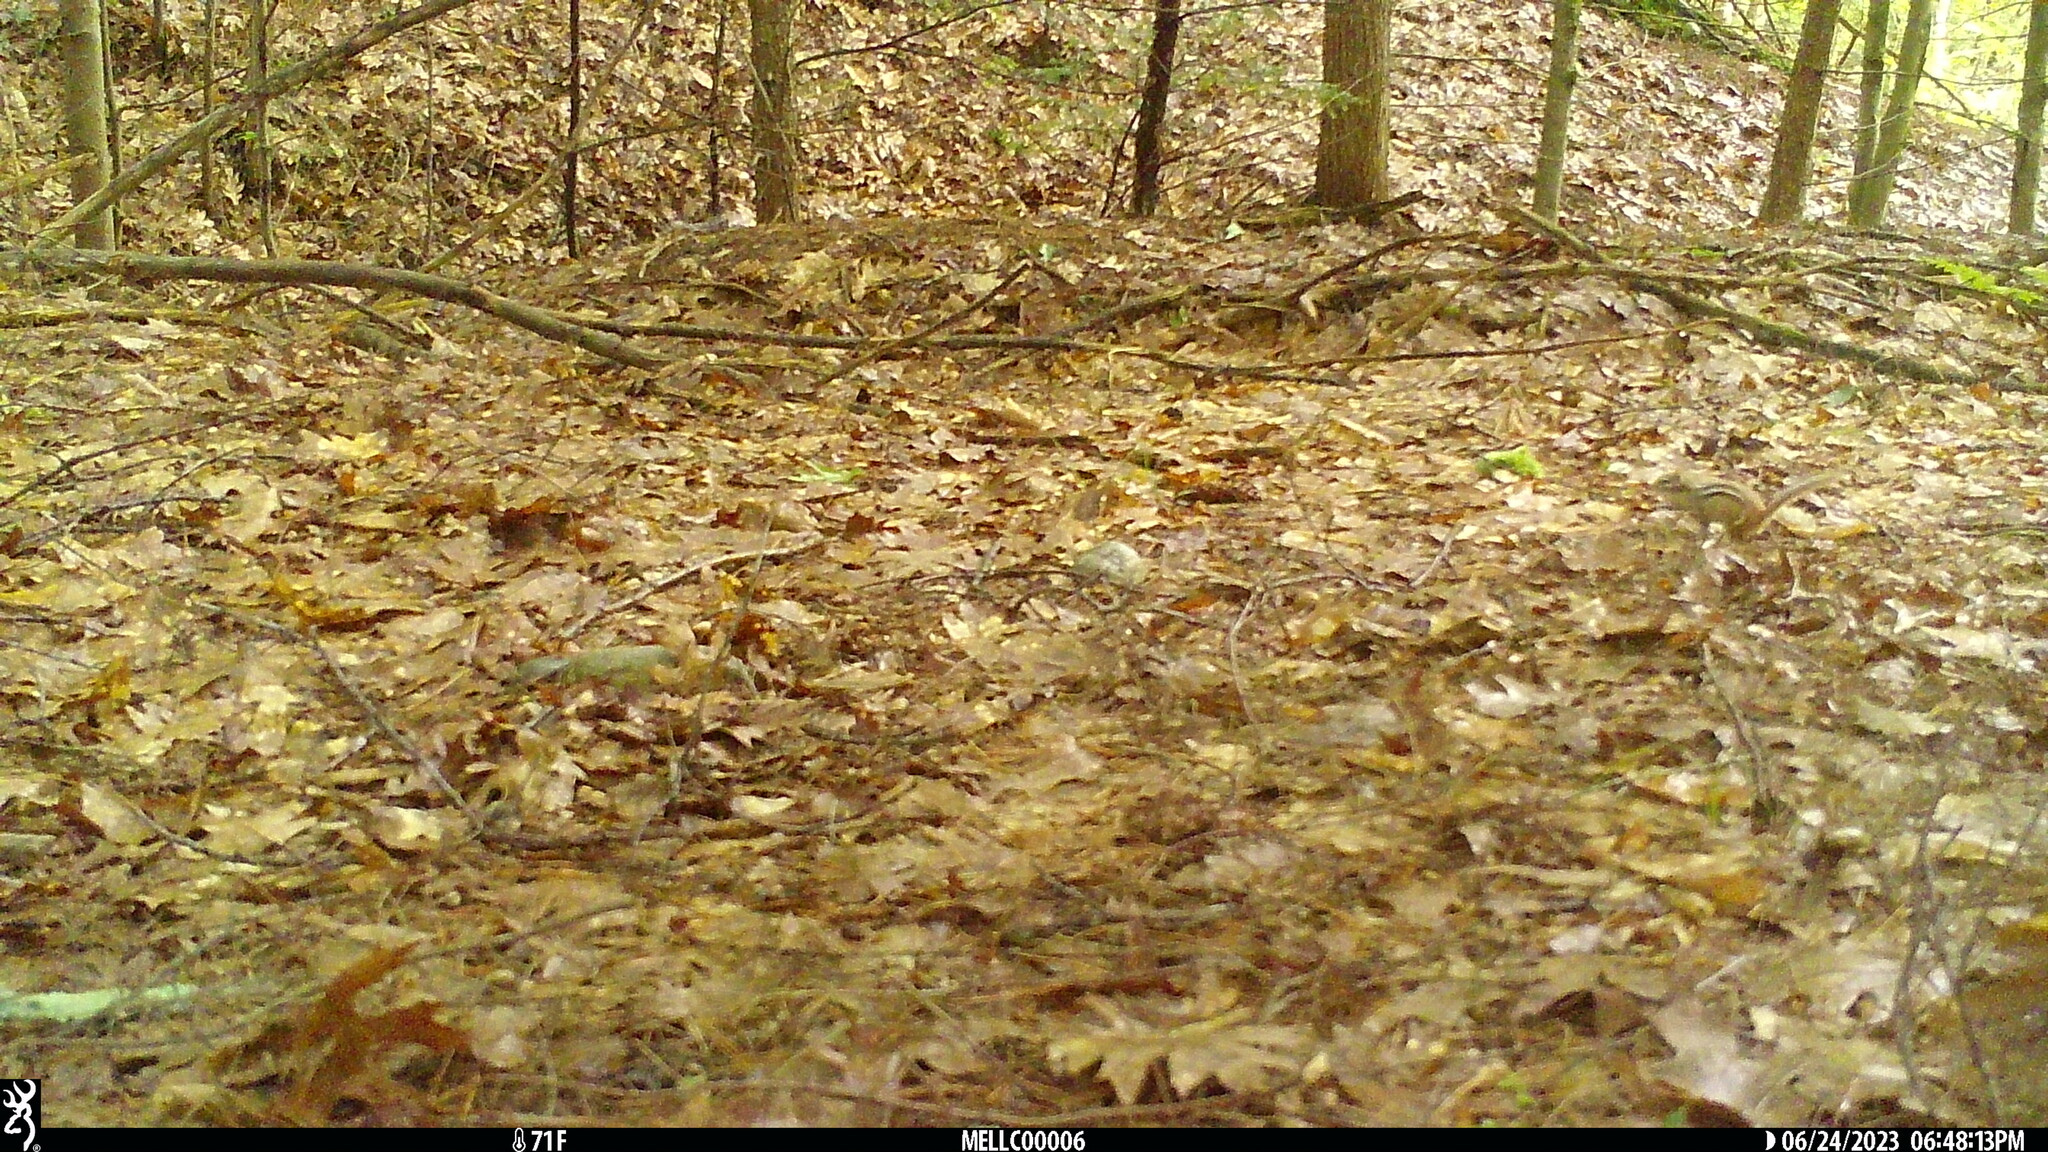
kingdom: Animalia
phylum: Chordata
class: Mammalia
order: Rodentia
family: Sciuridae
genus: Tamias
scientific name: Tamias striatus
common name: Eastern chipmunk
